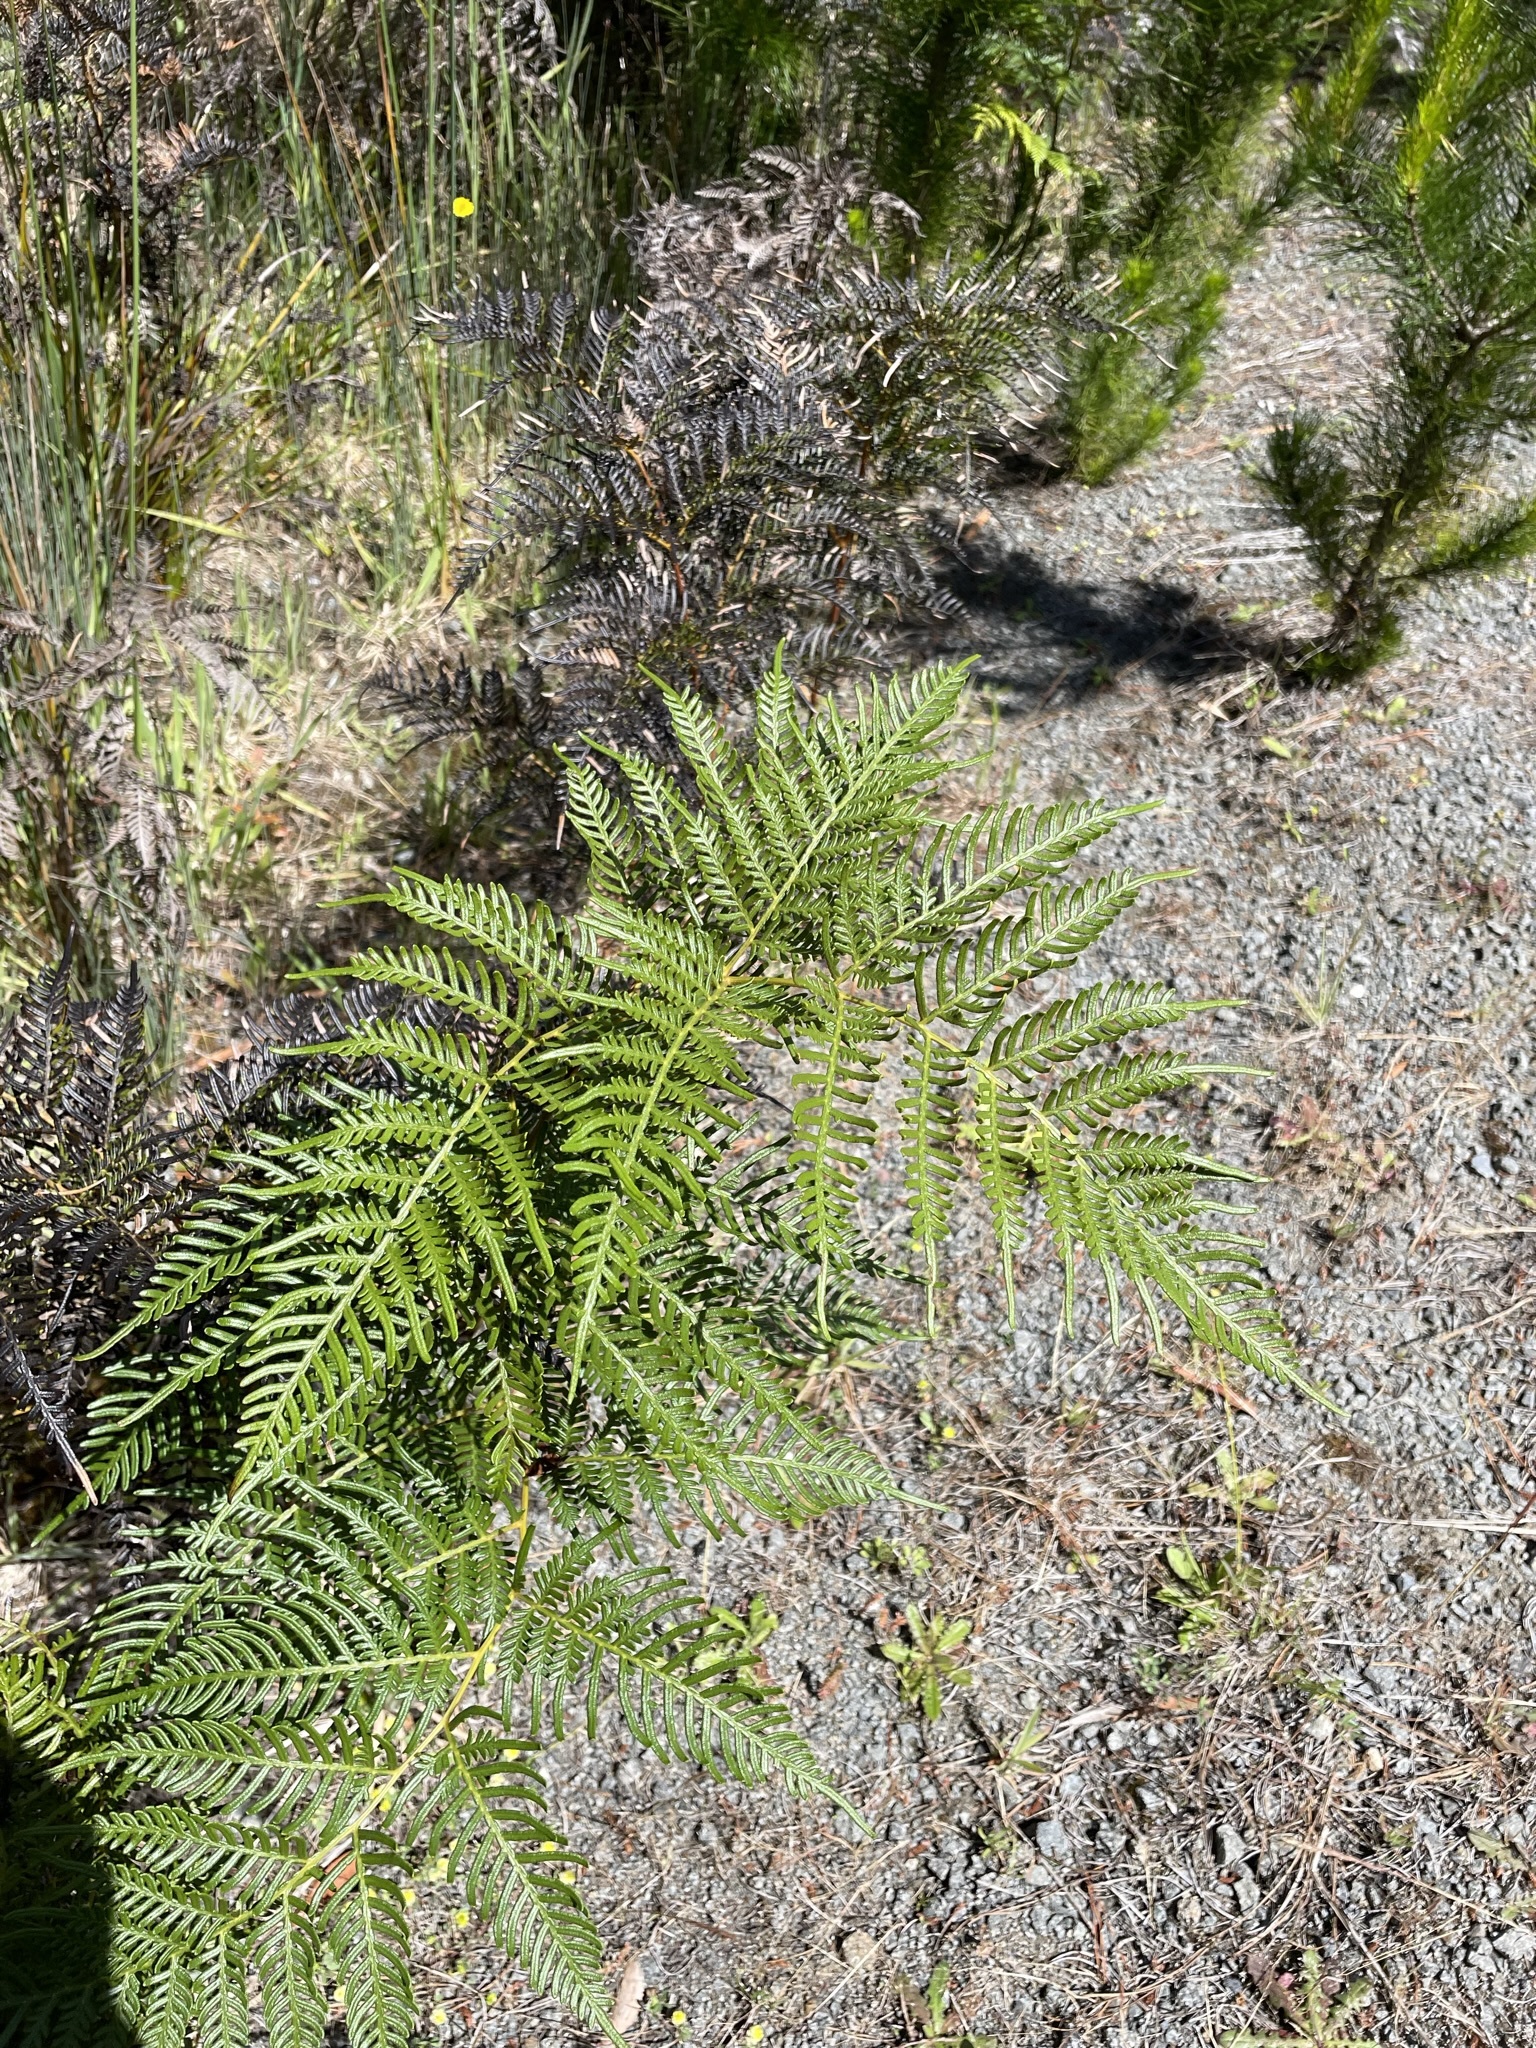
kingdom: Plantae
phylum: Tracheophyta
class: Polypodiopsida
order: Polypodiales
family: Dennstaedtiaceae
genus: Pteridium
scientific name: Pteridium esculentum
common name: Bracken fern
